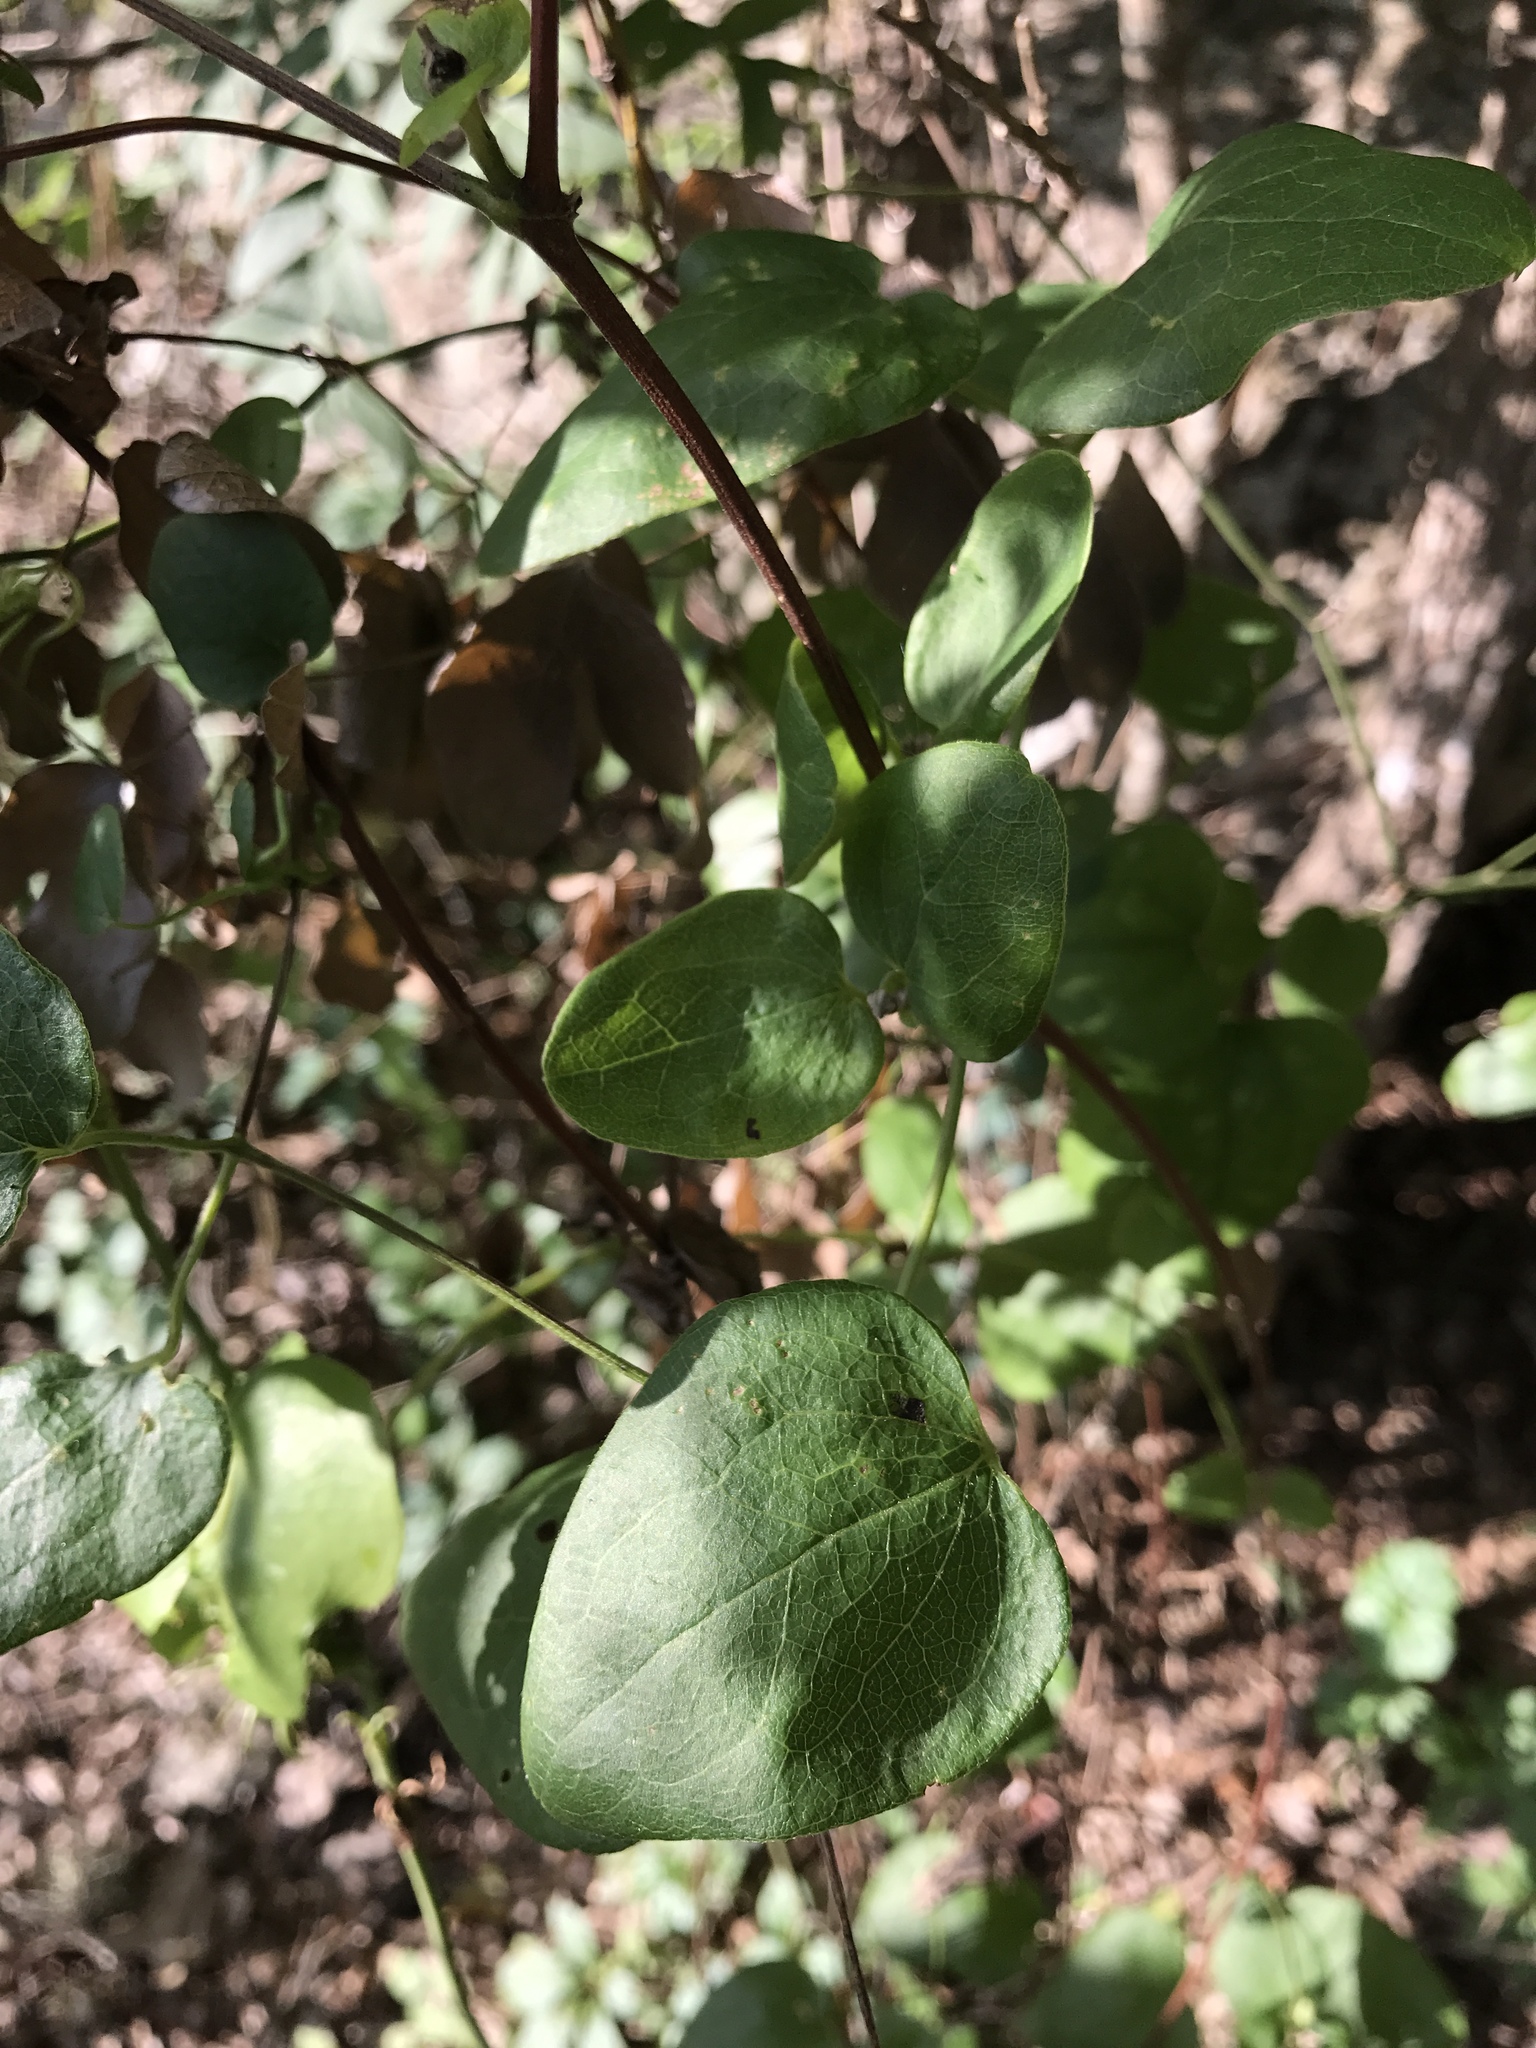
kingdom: Plantae
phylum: Tracheophyta
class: Magnoliopsida
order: Ranunculales
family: Ranunculaceae
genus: Clematis
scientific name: Clematis pitcheri
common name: Bellflower clematis
